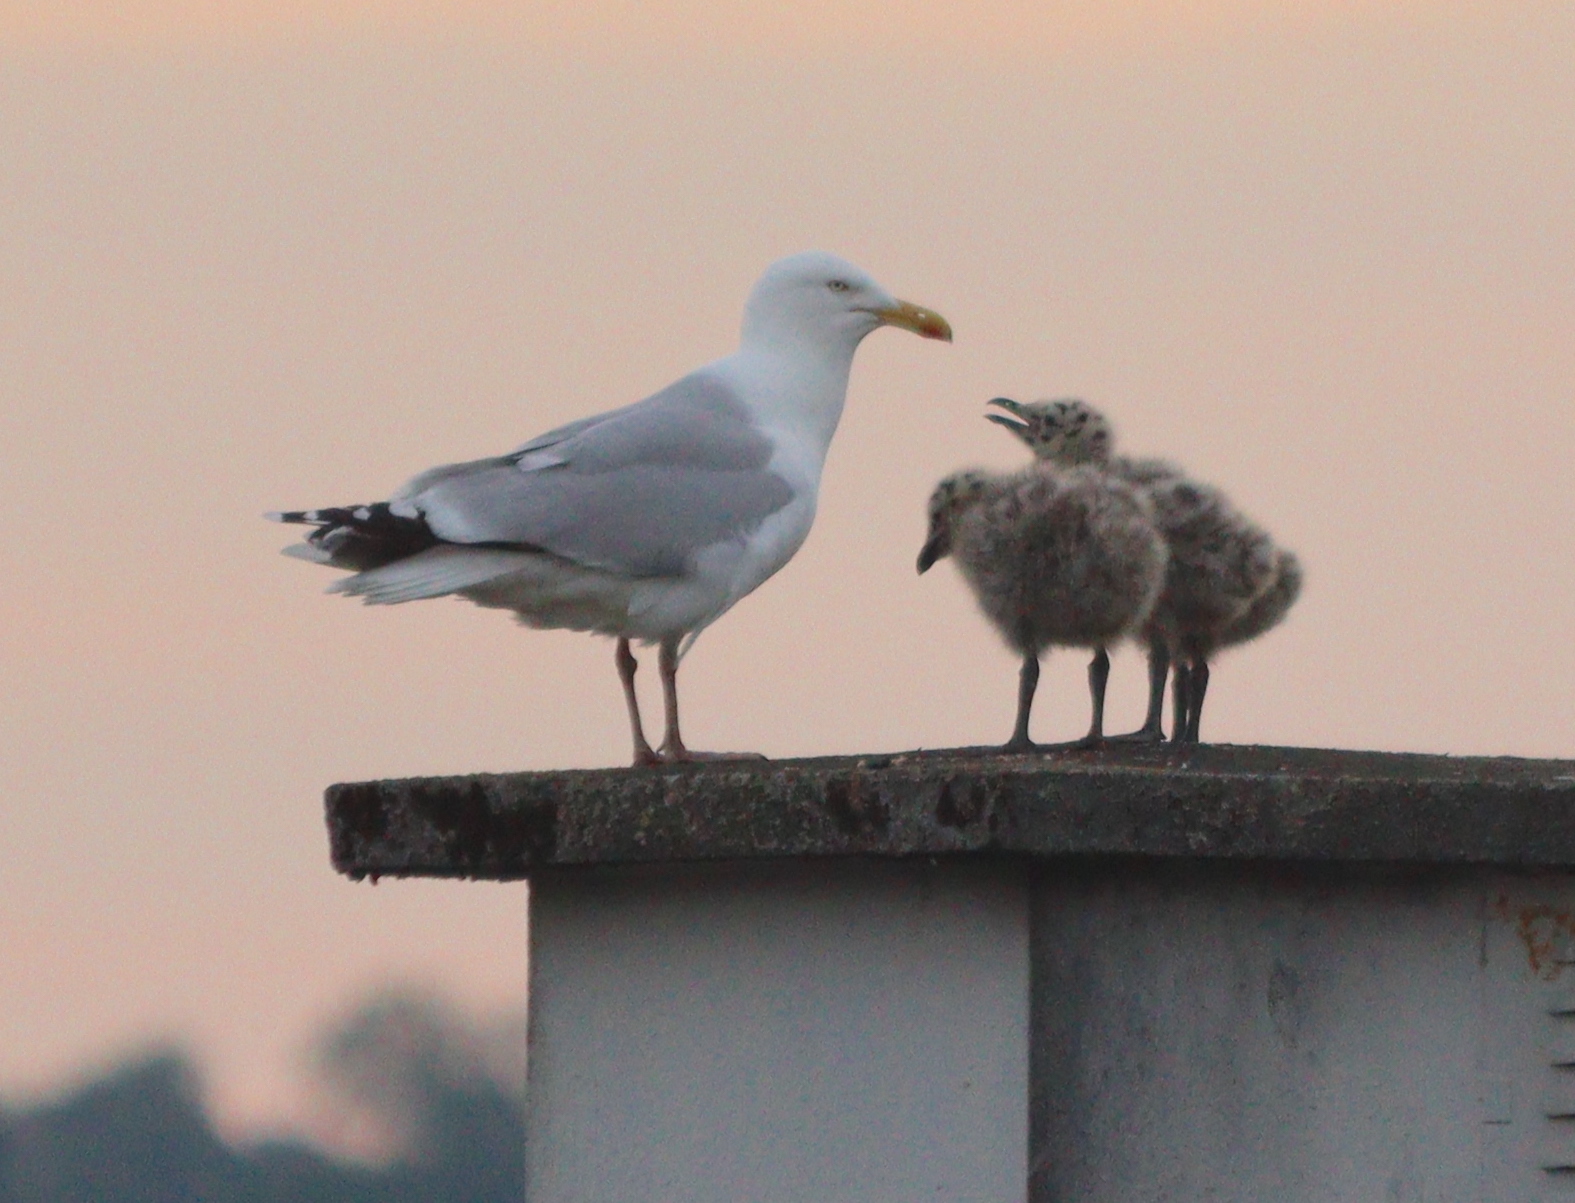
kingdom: Animalia
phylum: Chordata
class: Aves
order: Charadriiformes
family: Laridae
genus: Larus
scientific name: Larus argentatus
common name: Herring gull
